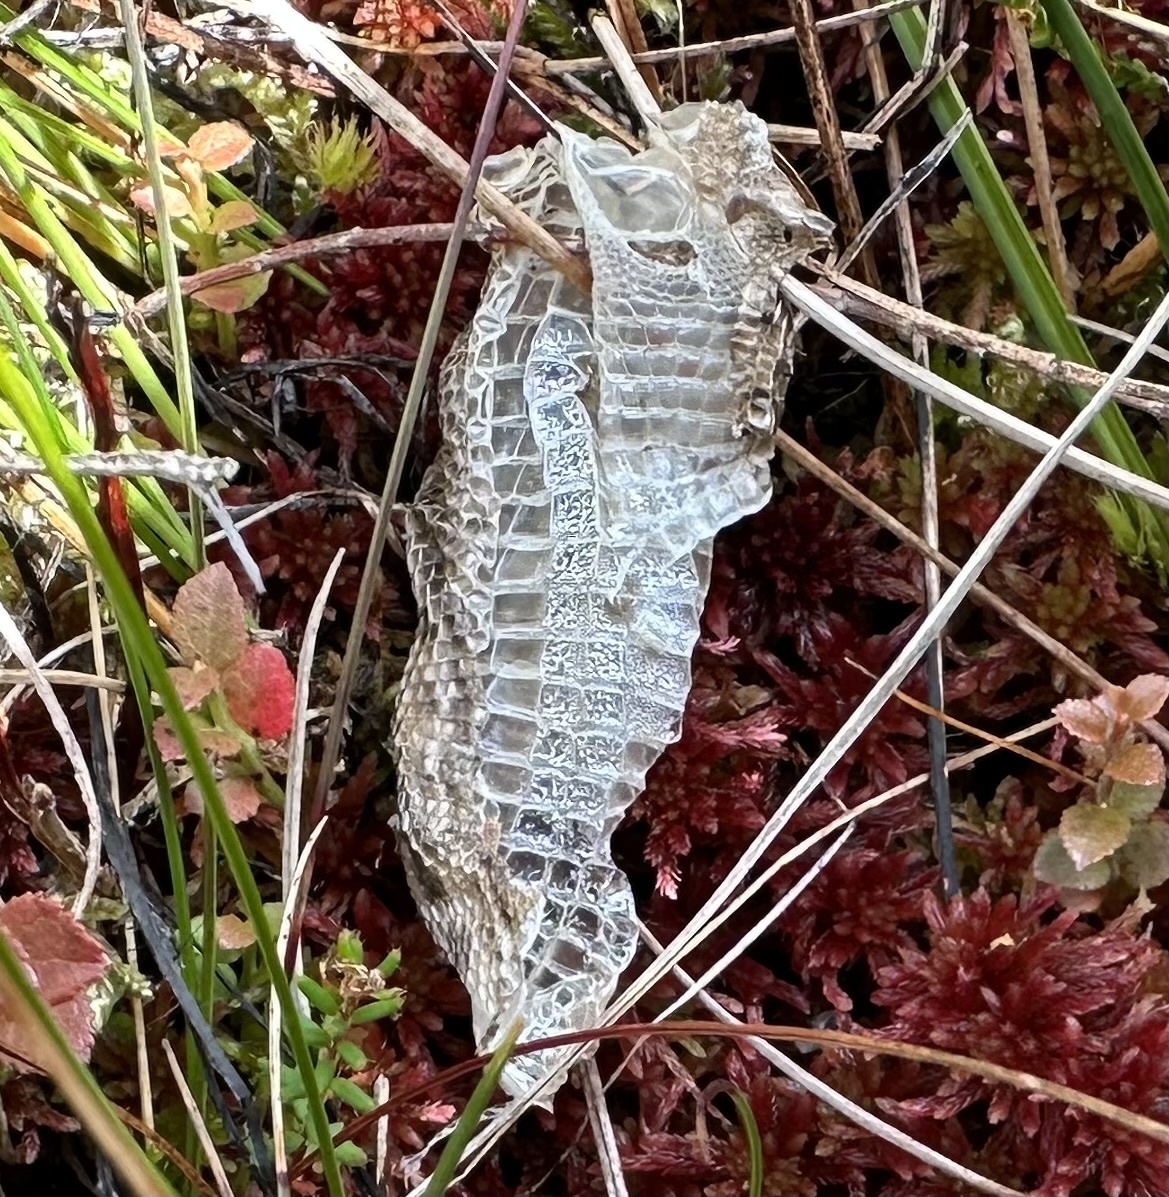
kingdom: Animalia
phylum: Chordata
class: Squamata
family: Lacertidae
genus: Zootoca
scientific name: Zootoca vivipara
